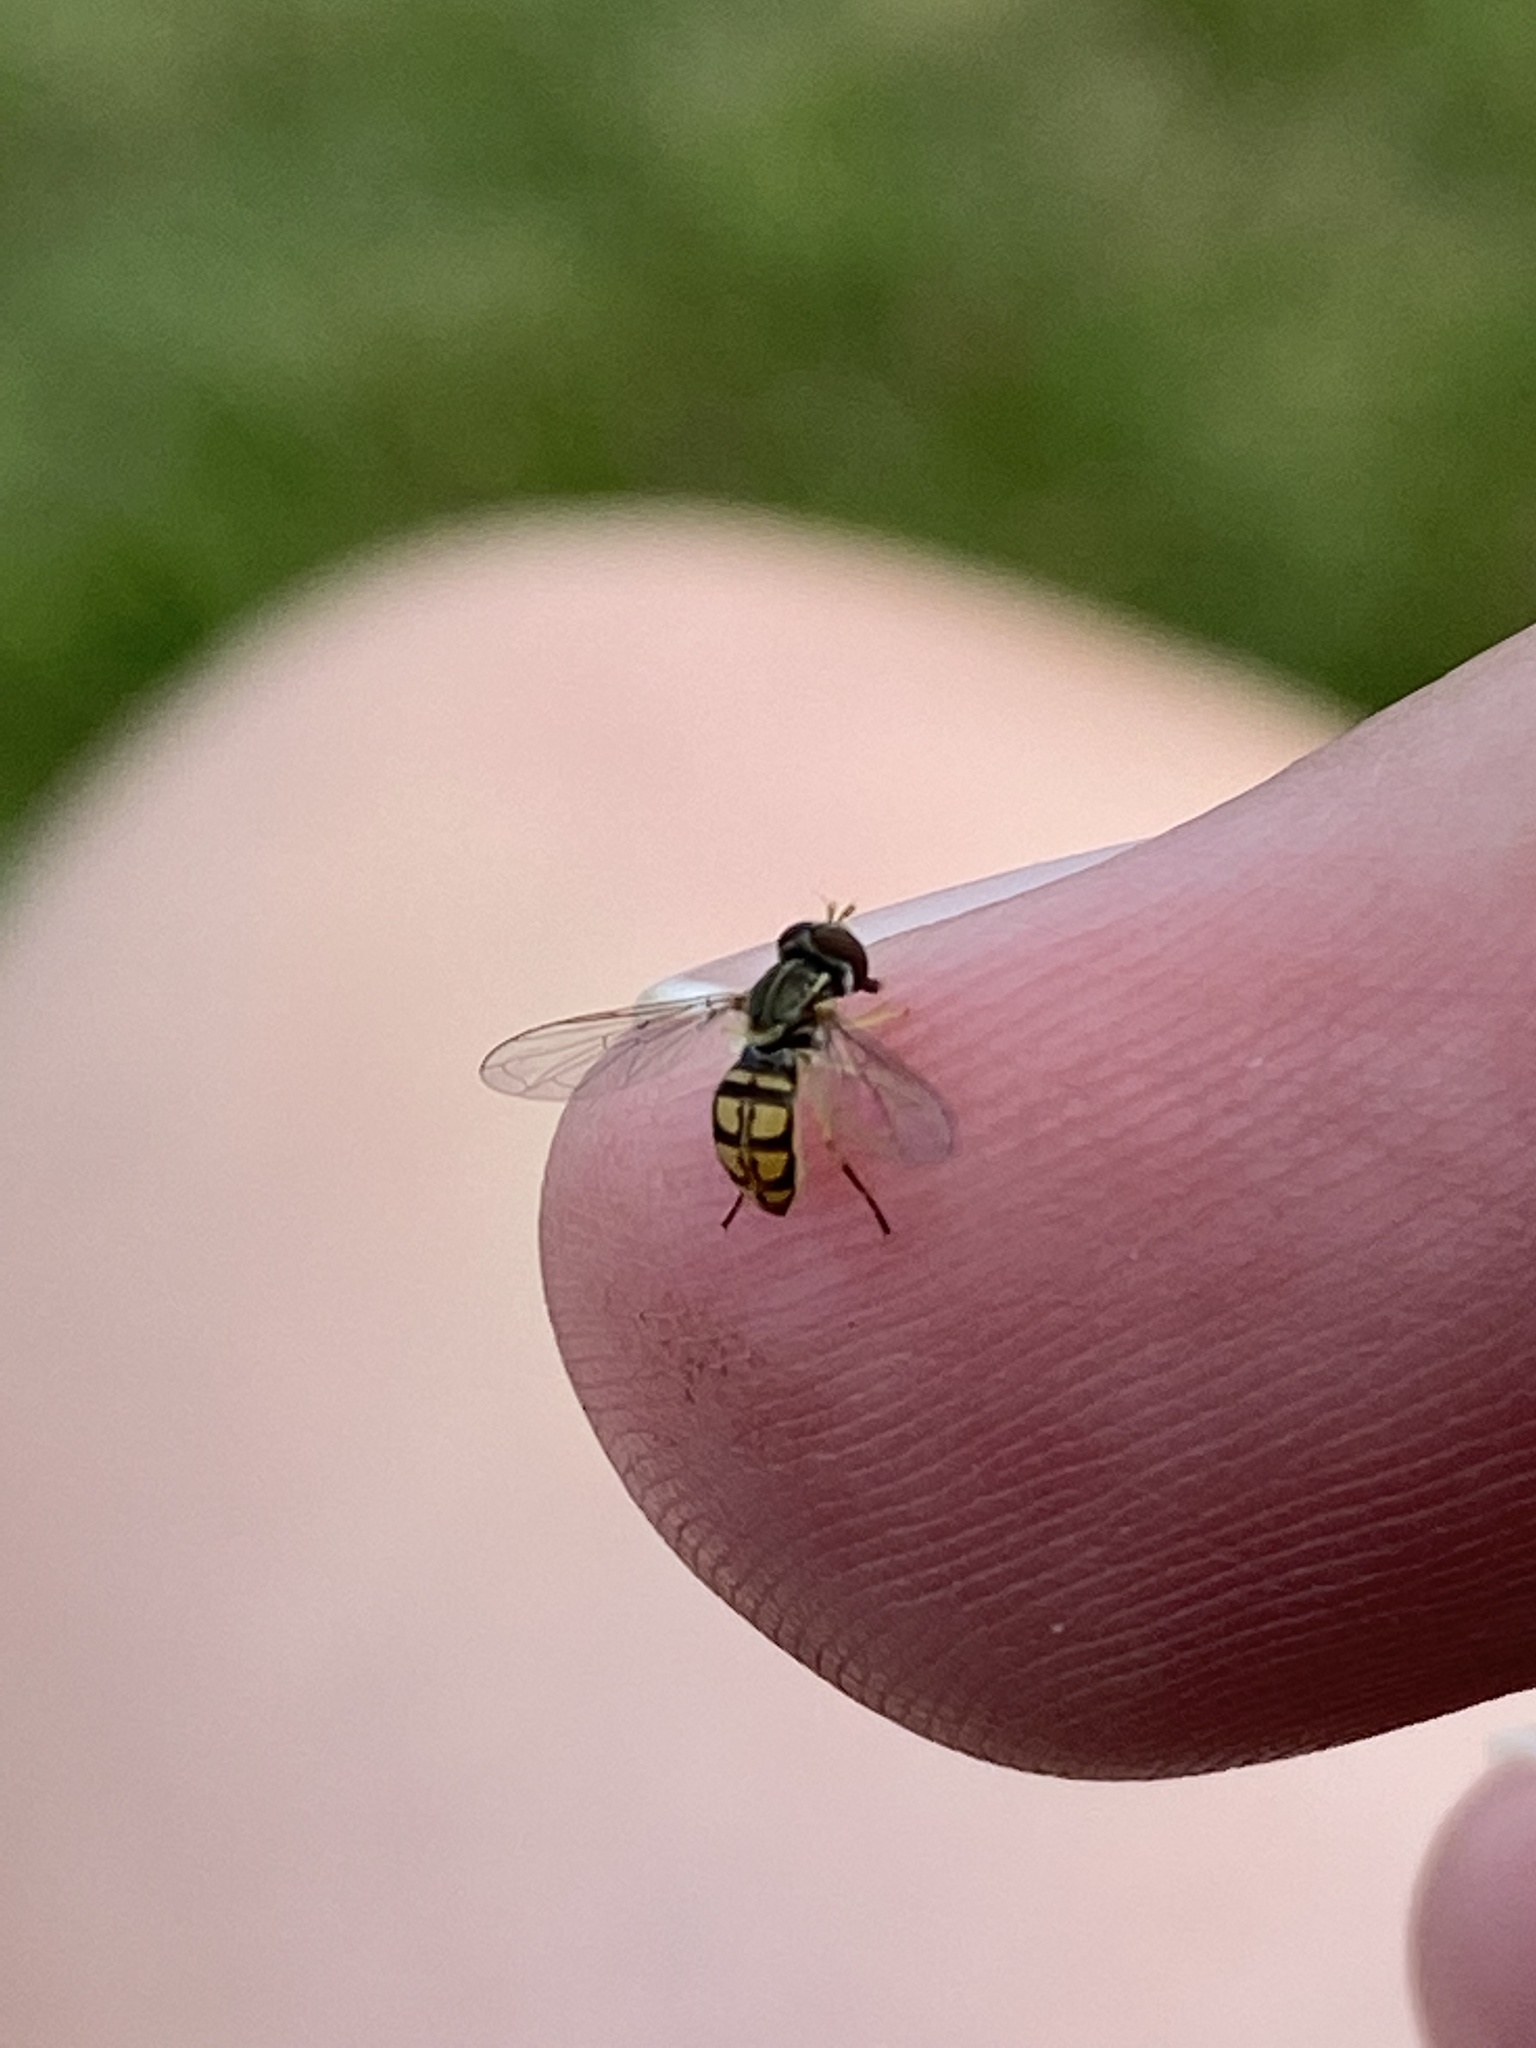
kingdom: Animalia
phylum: Arthropoda
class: Insecta
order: Diptera
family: Syrphidae
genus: Toxomerus
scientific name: Toxomerus marginatus
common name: Syrphid fly
